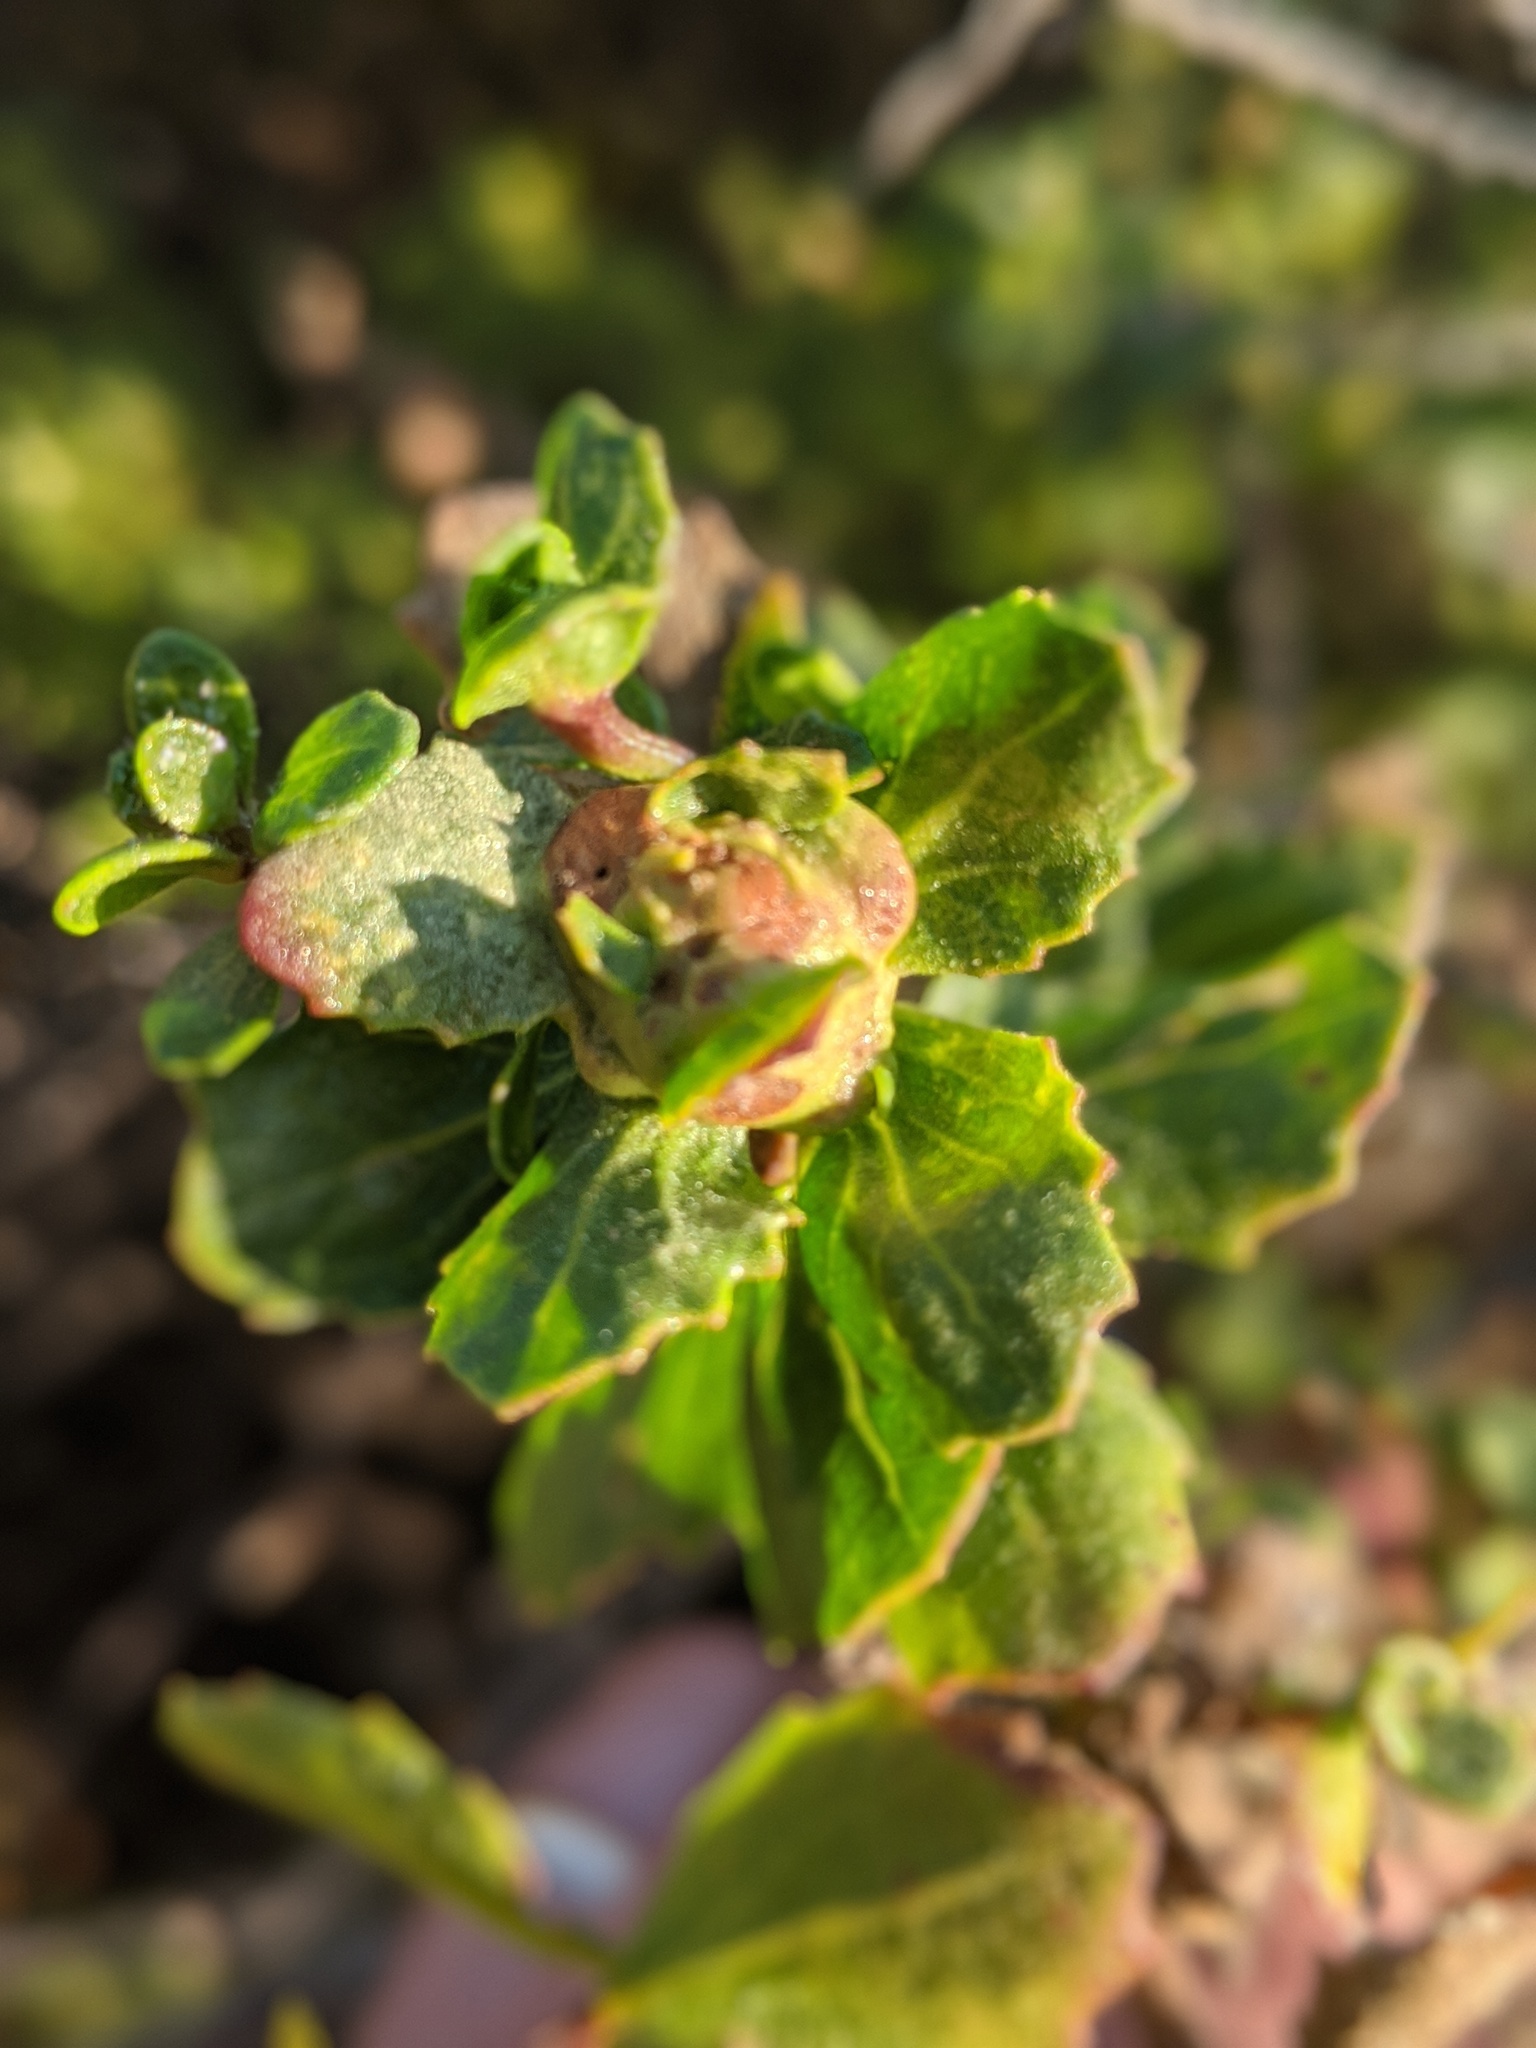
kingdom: Animalia
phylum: Arthropoda
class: Insecta
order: Diptera
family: Cecidomyiidae
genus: Rhopalomyia
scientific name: Rhopalomyia californica
